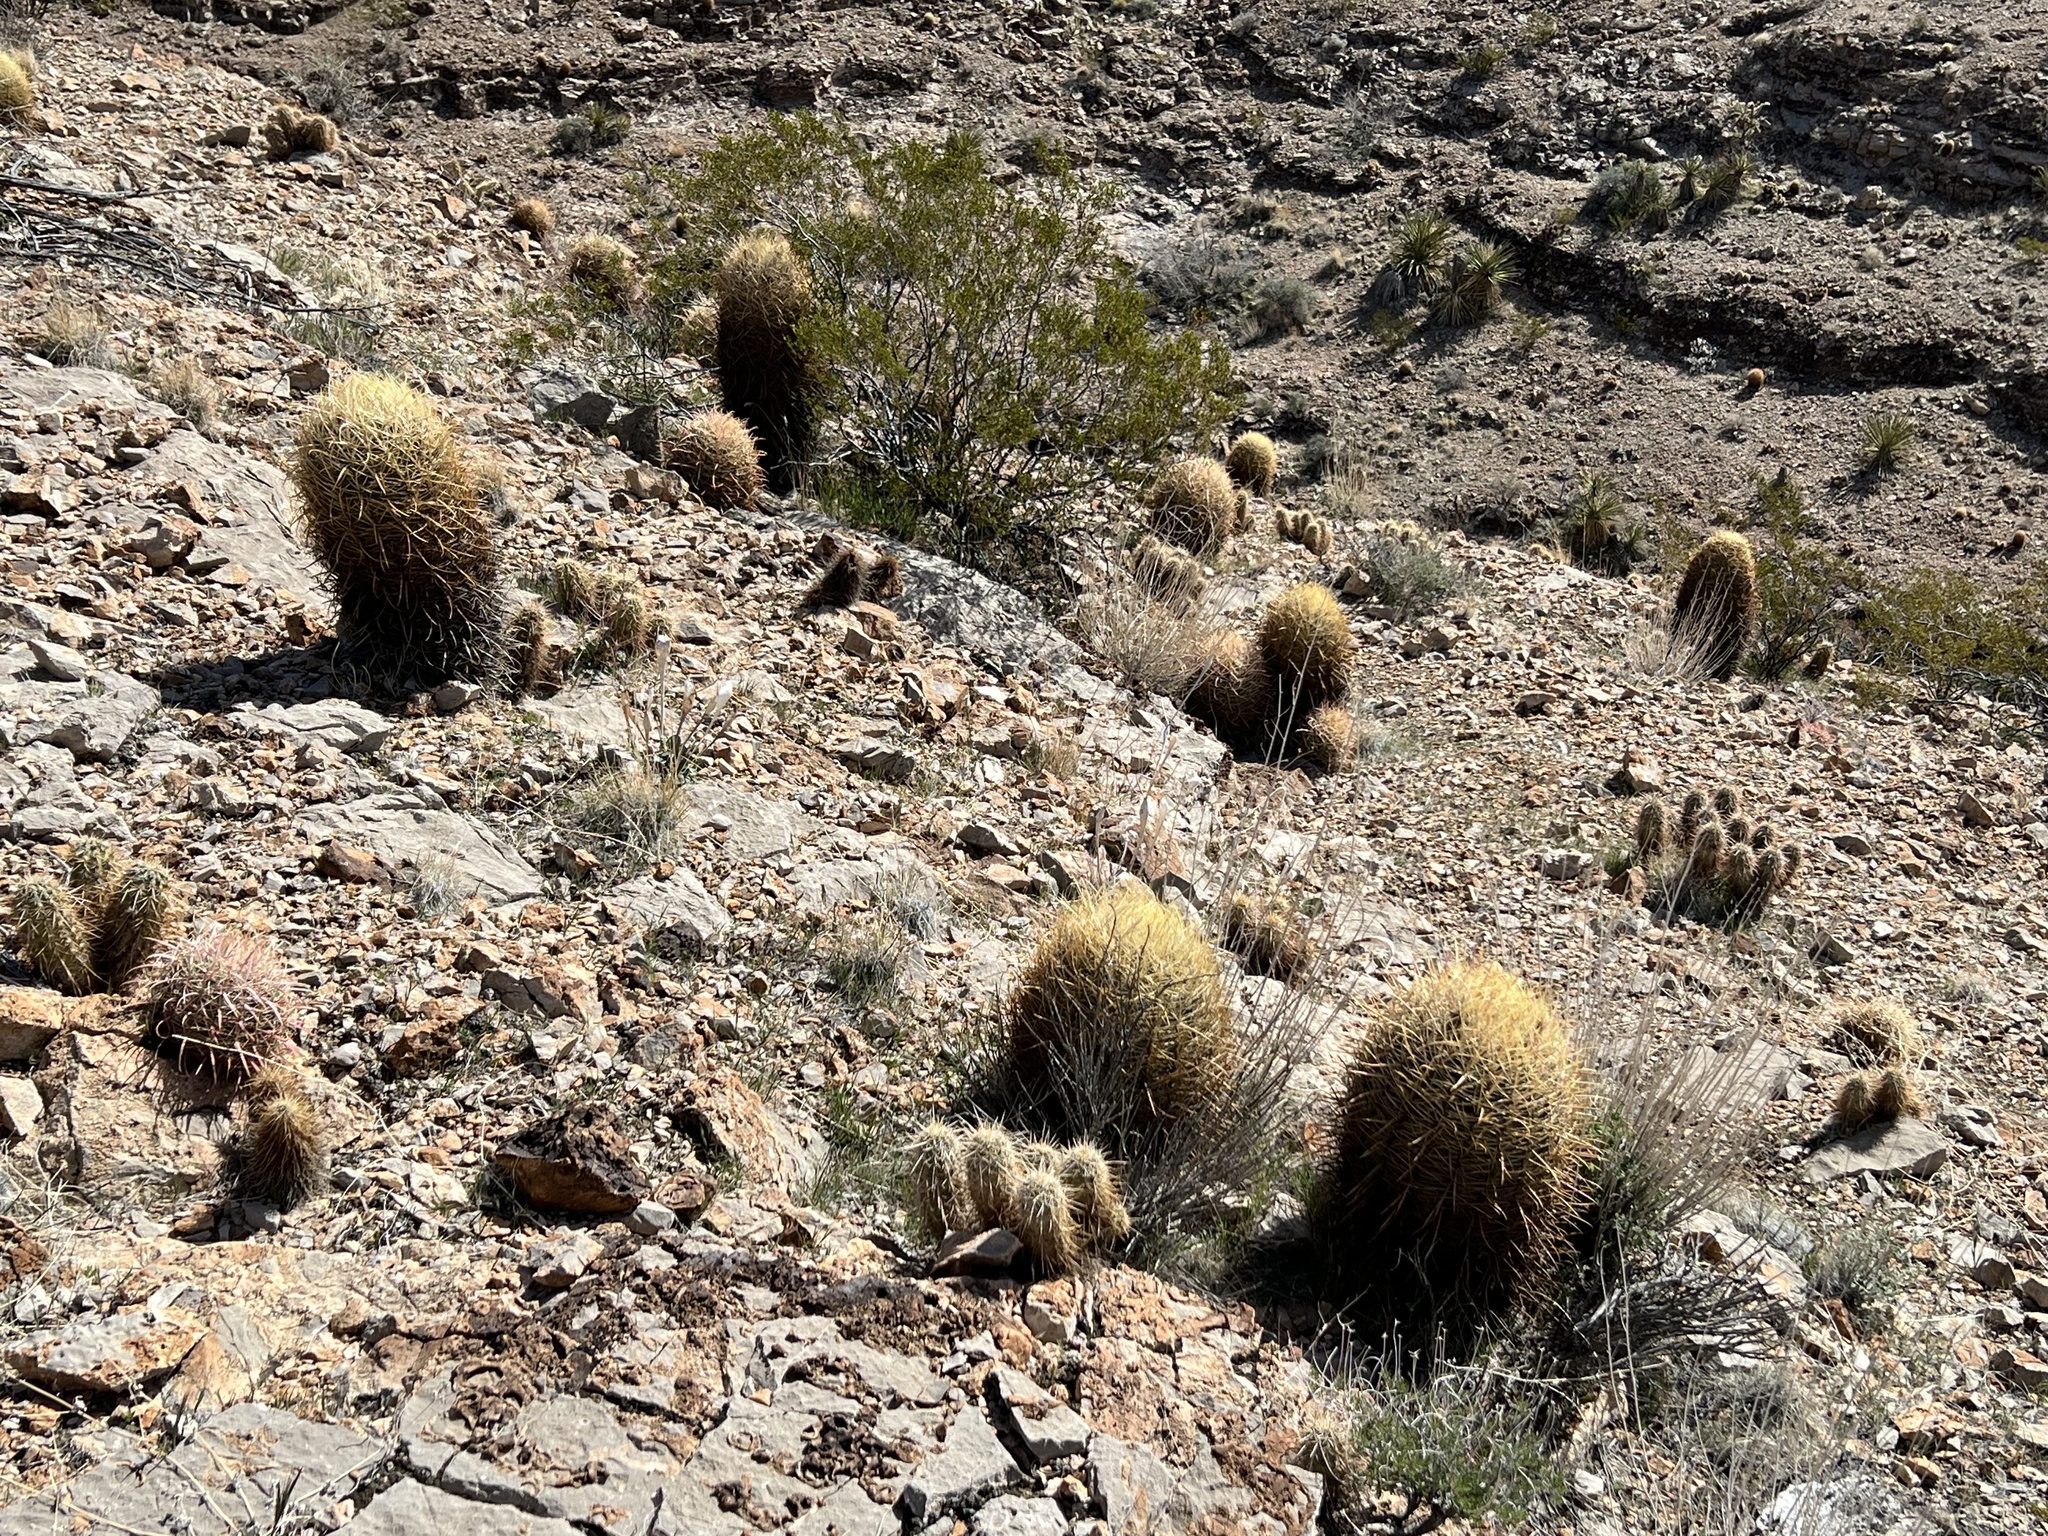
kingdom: Plantae
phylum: Tracheophyta
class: Magnoliopsida
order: Caryophyllales
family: Cactaceae
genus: Ferocactus
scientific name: Ferocactus cylindraceus
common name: California barrel cactus
